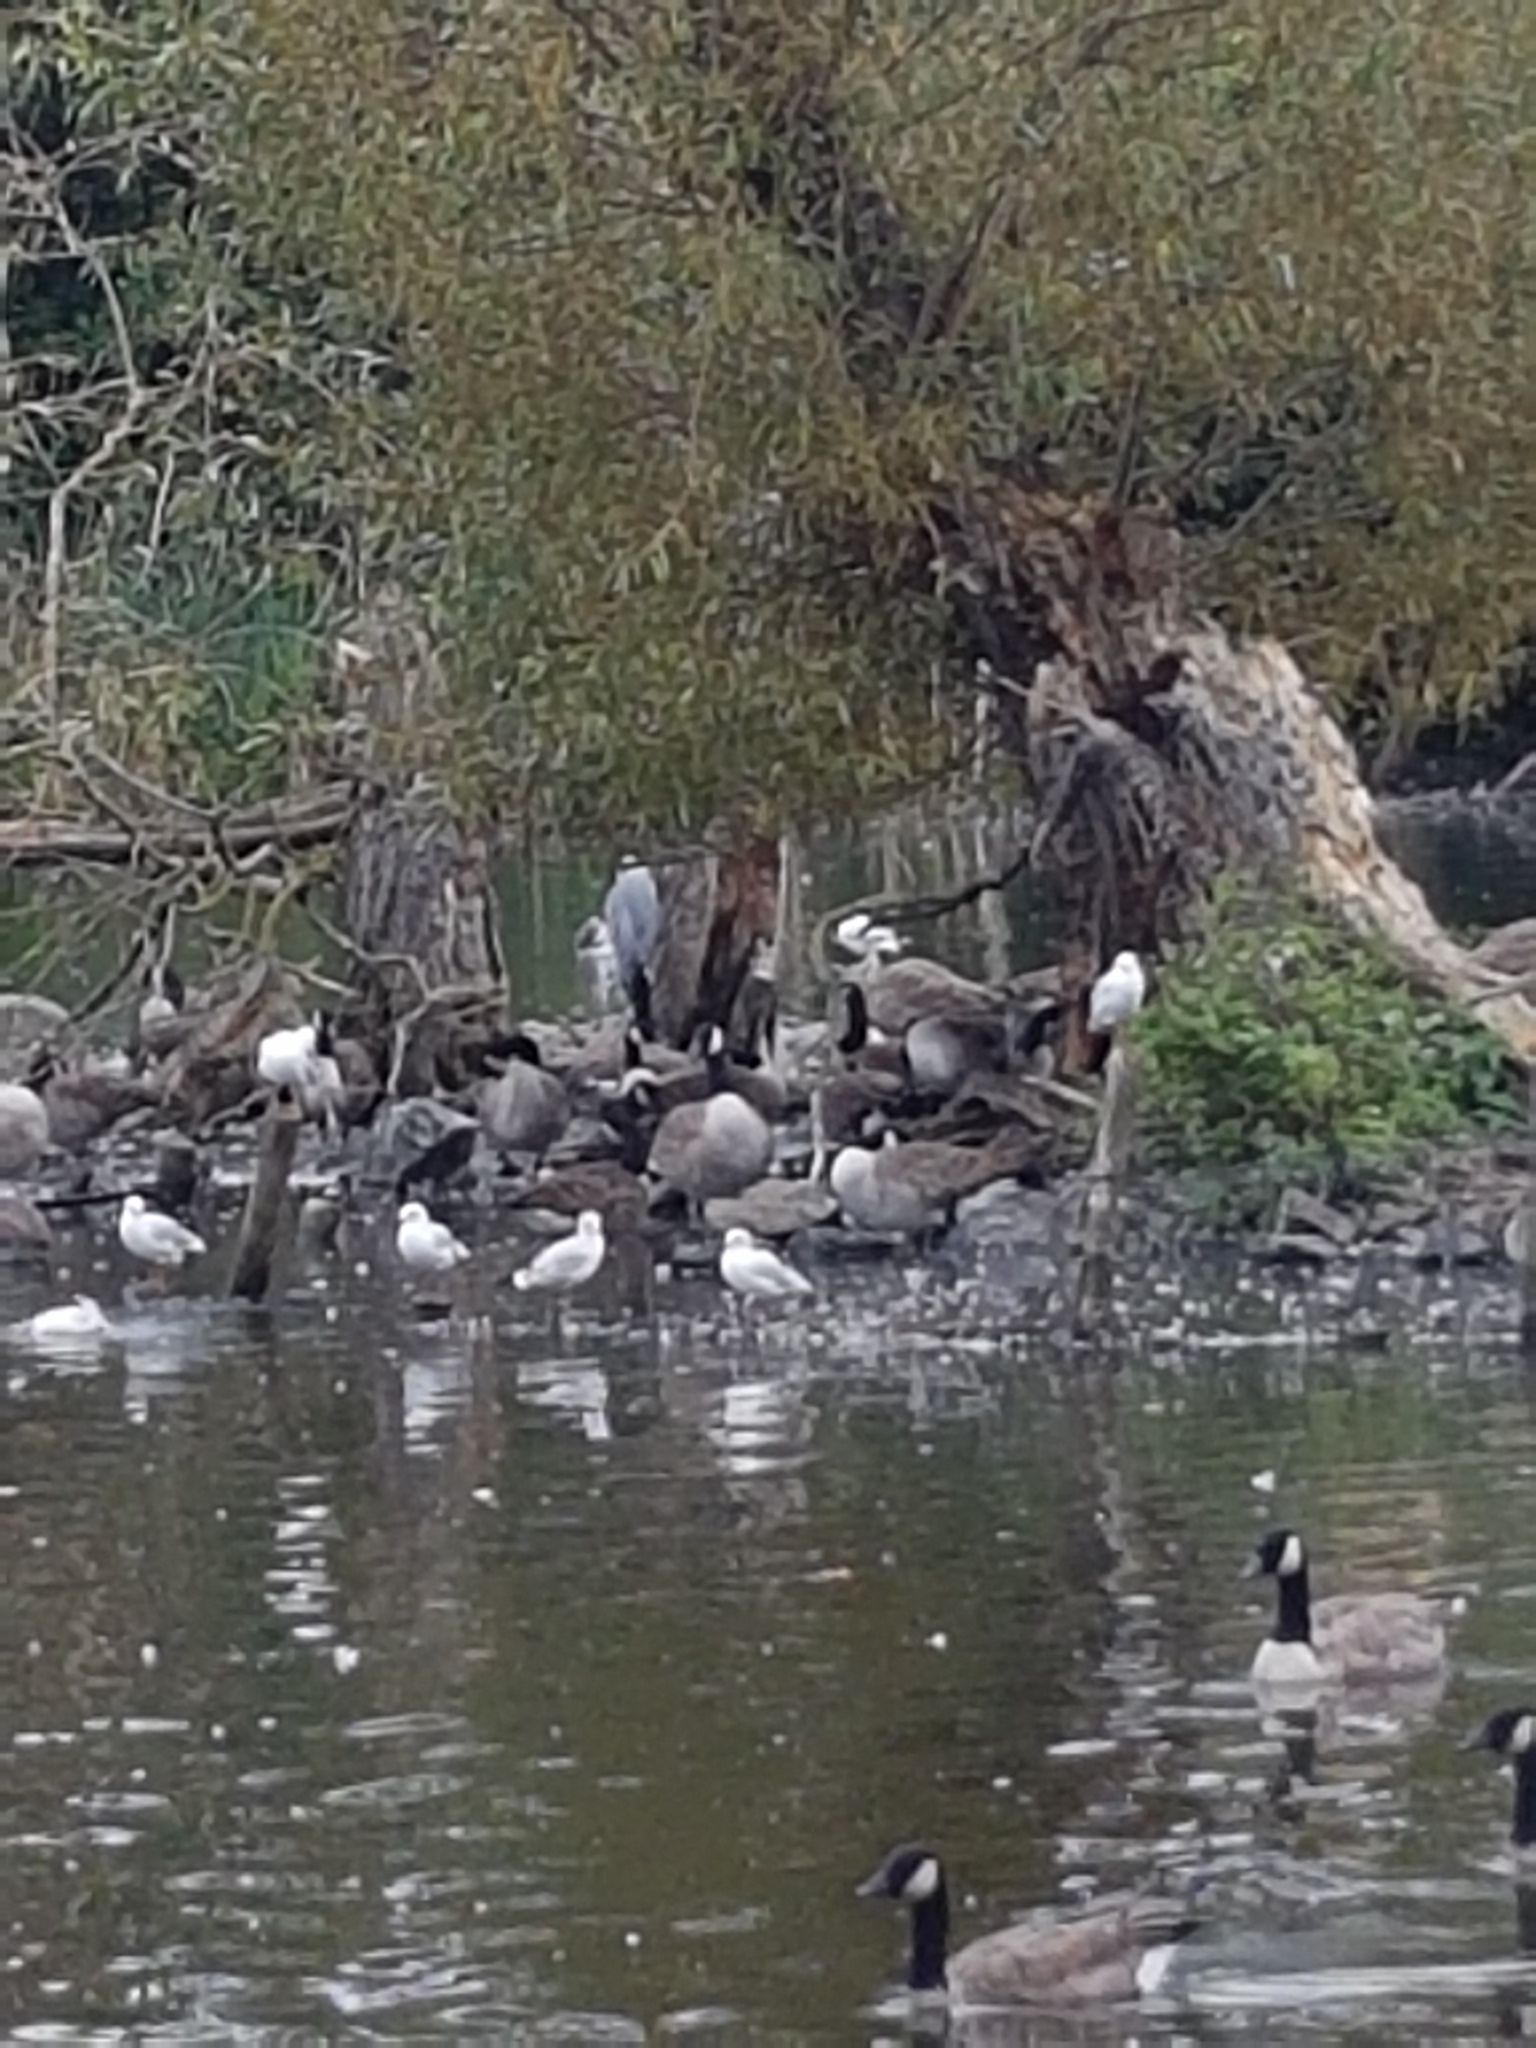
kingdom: Animalia
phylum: Chordata
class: Aves
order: Pelecaniformes
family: Ardeidae
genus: Ardea
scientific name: Ardea cinerea
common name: Grey heron
